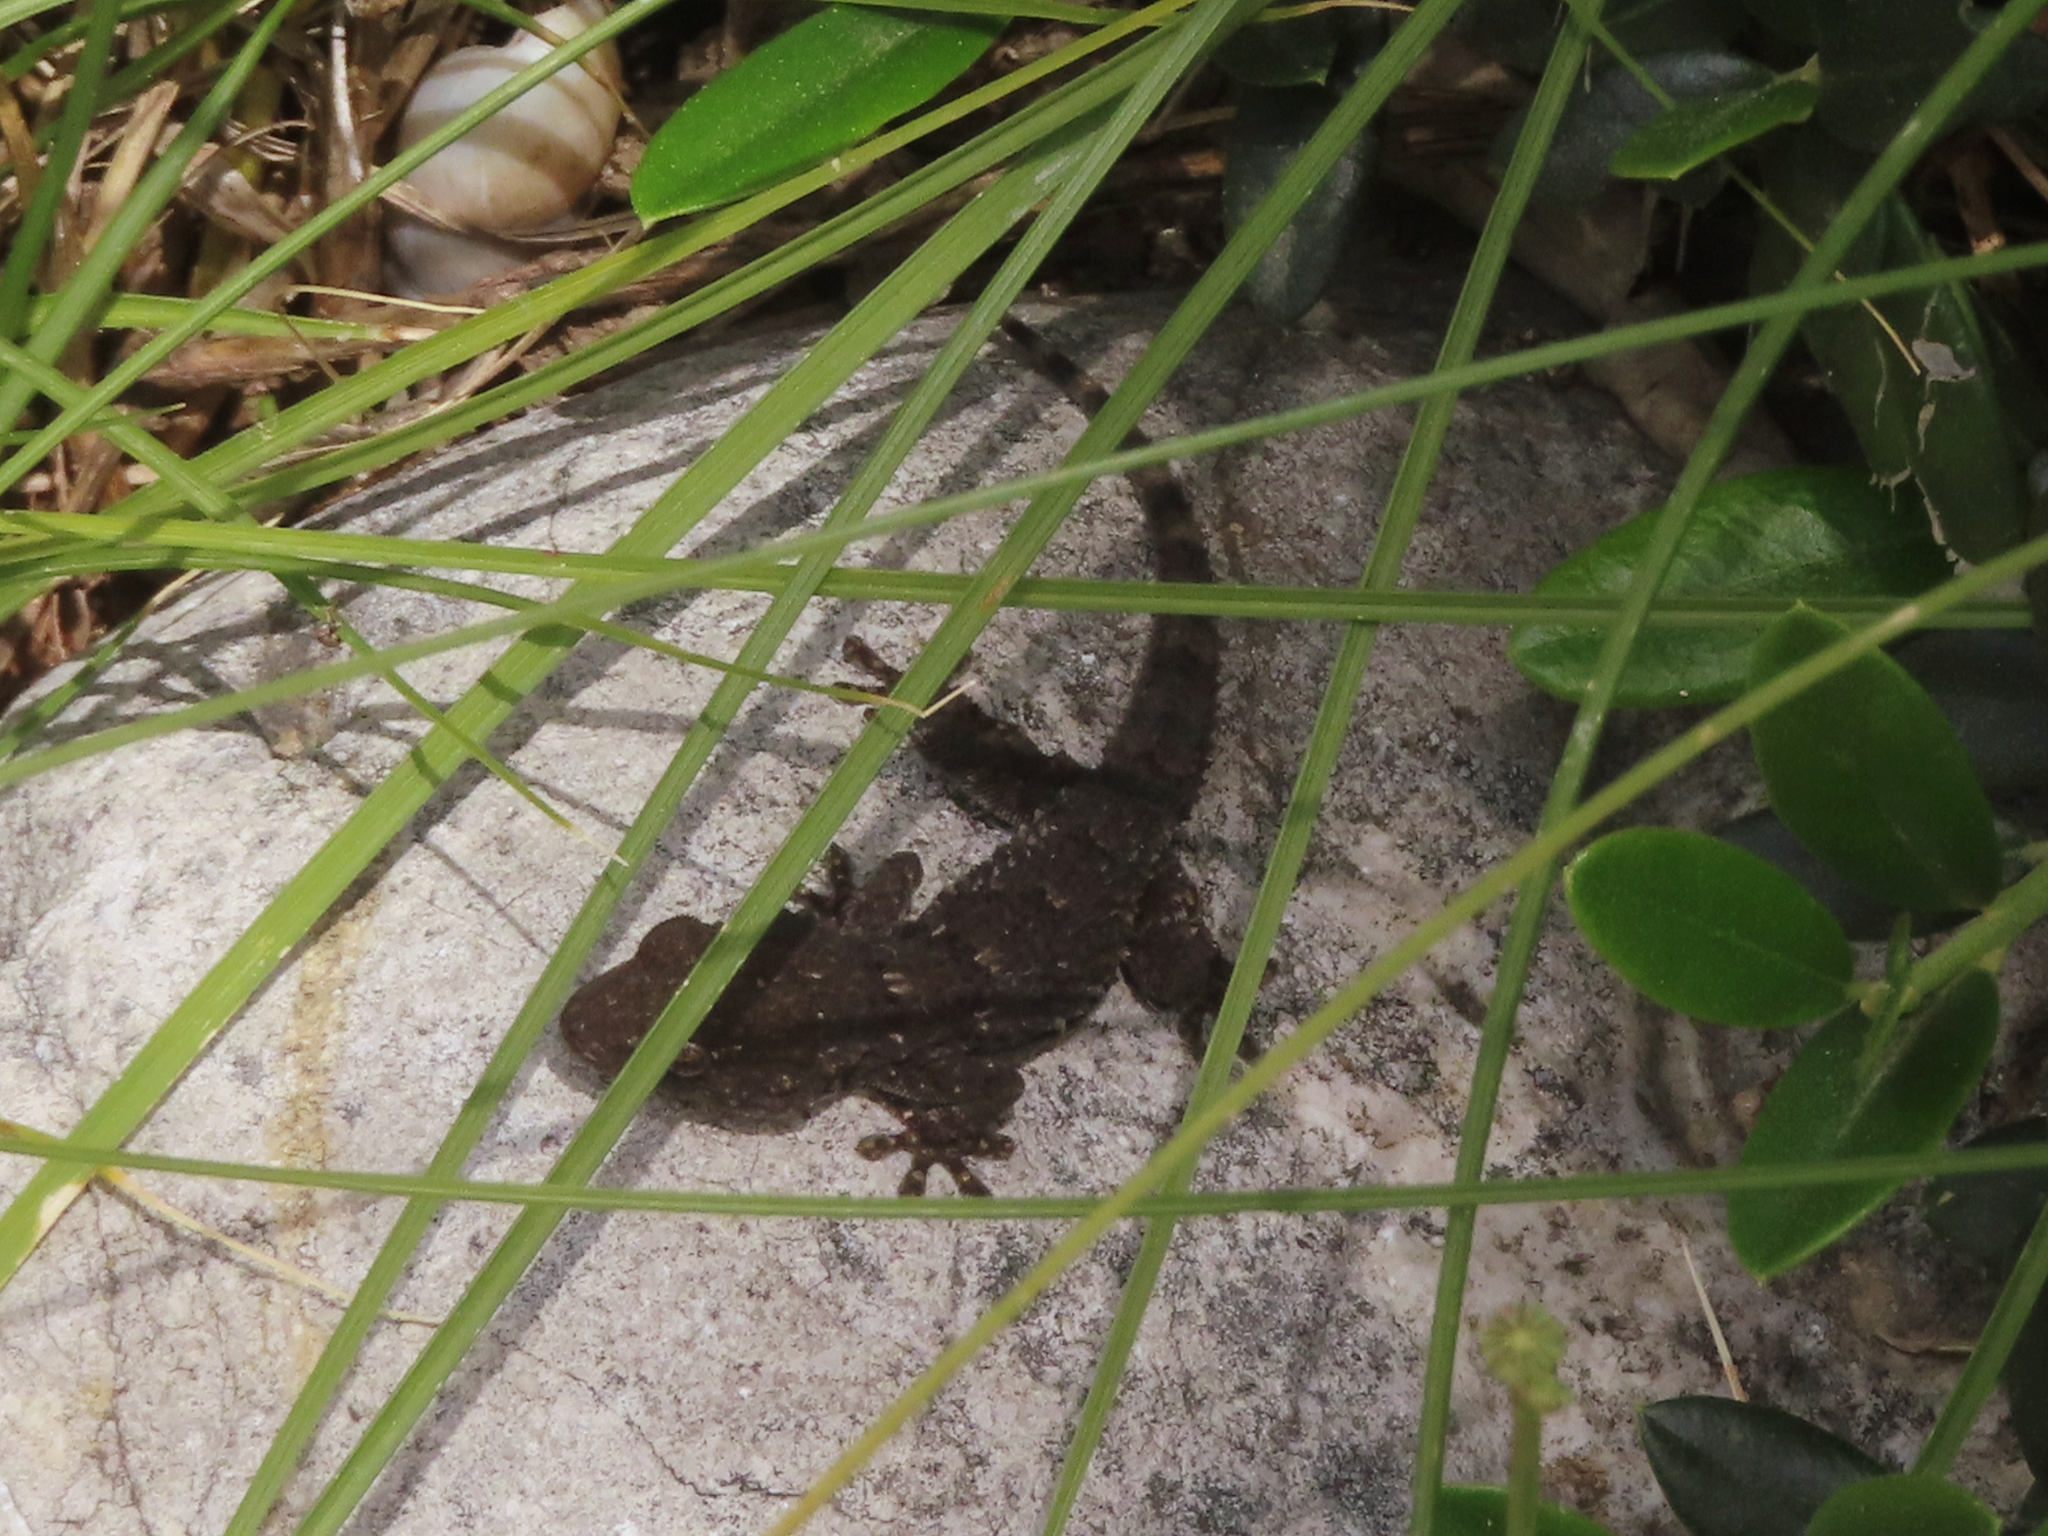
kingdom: Animalia
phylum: Chordata
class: Squamata
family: Phyllodactylidae
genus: Tarentola
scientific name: Tarentola mauritanica
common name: Moorish gecko
